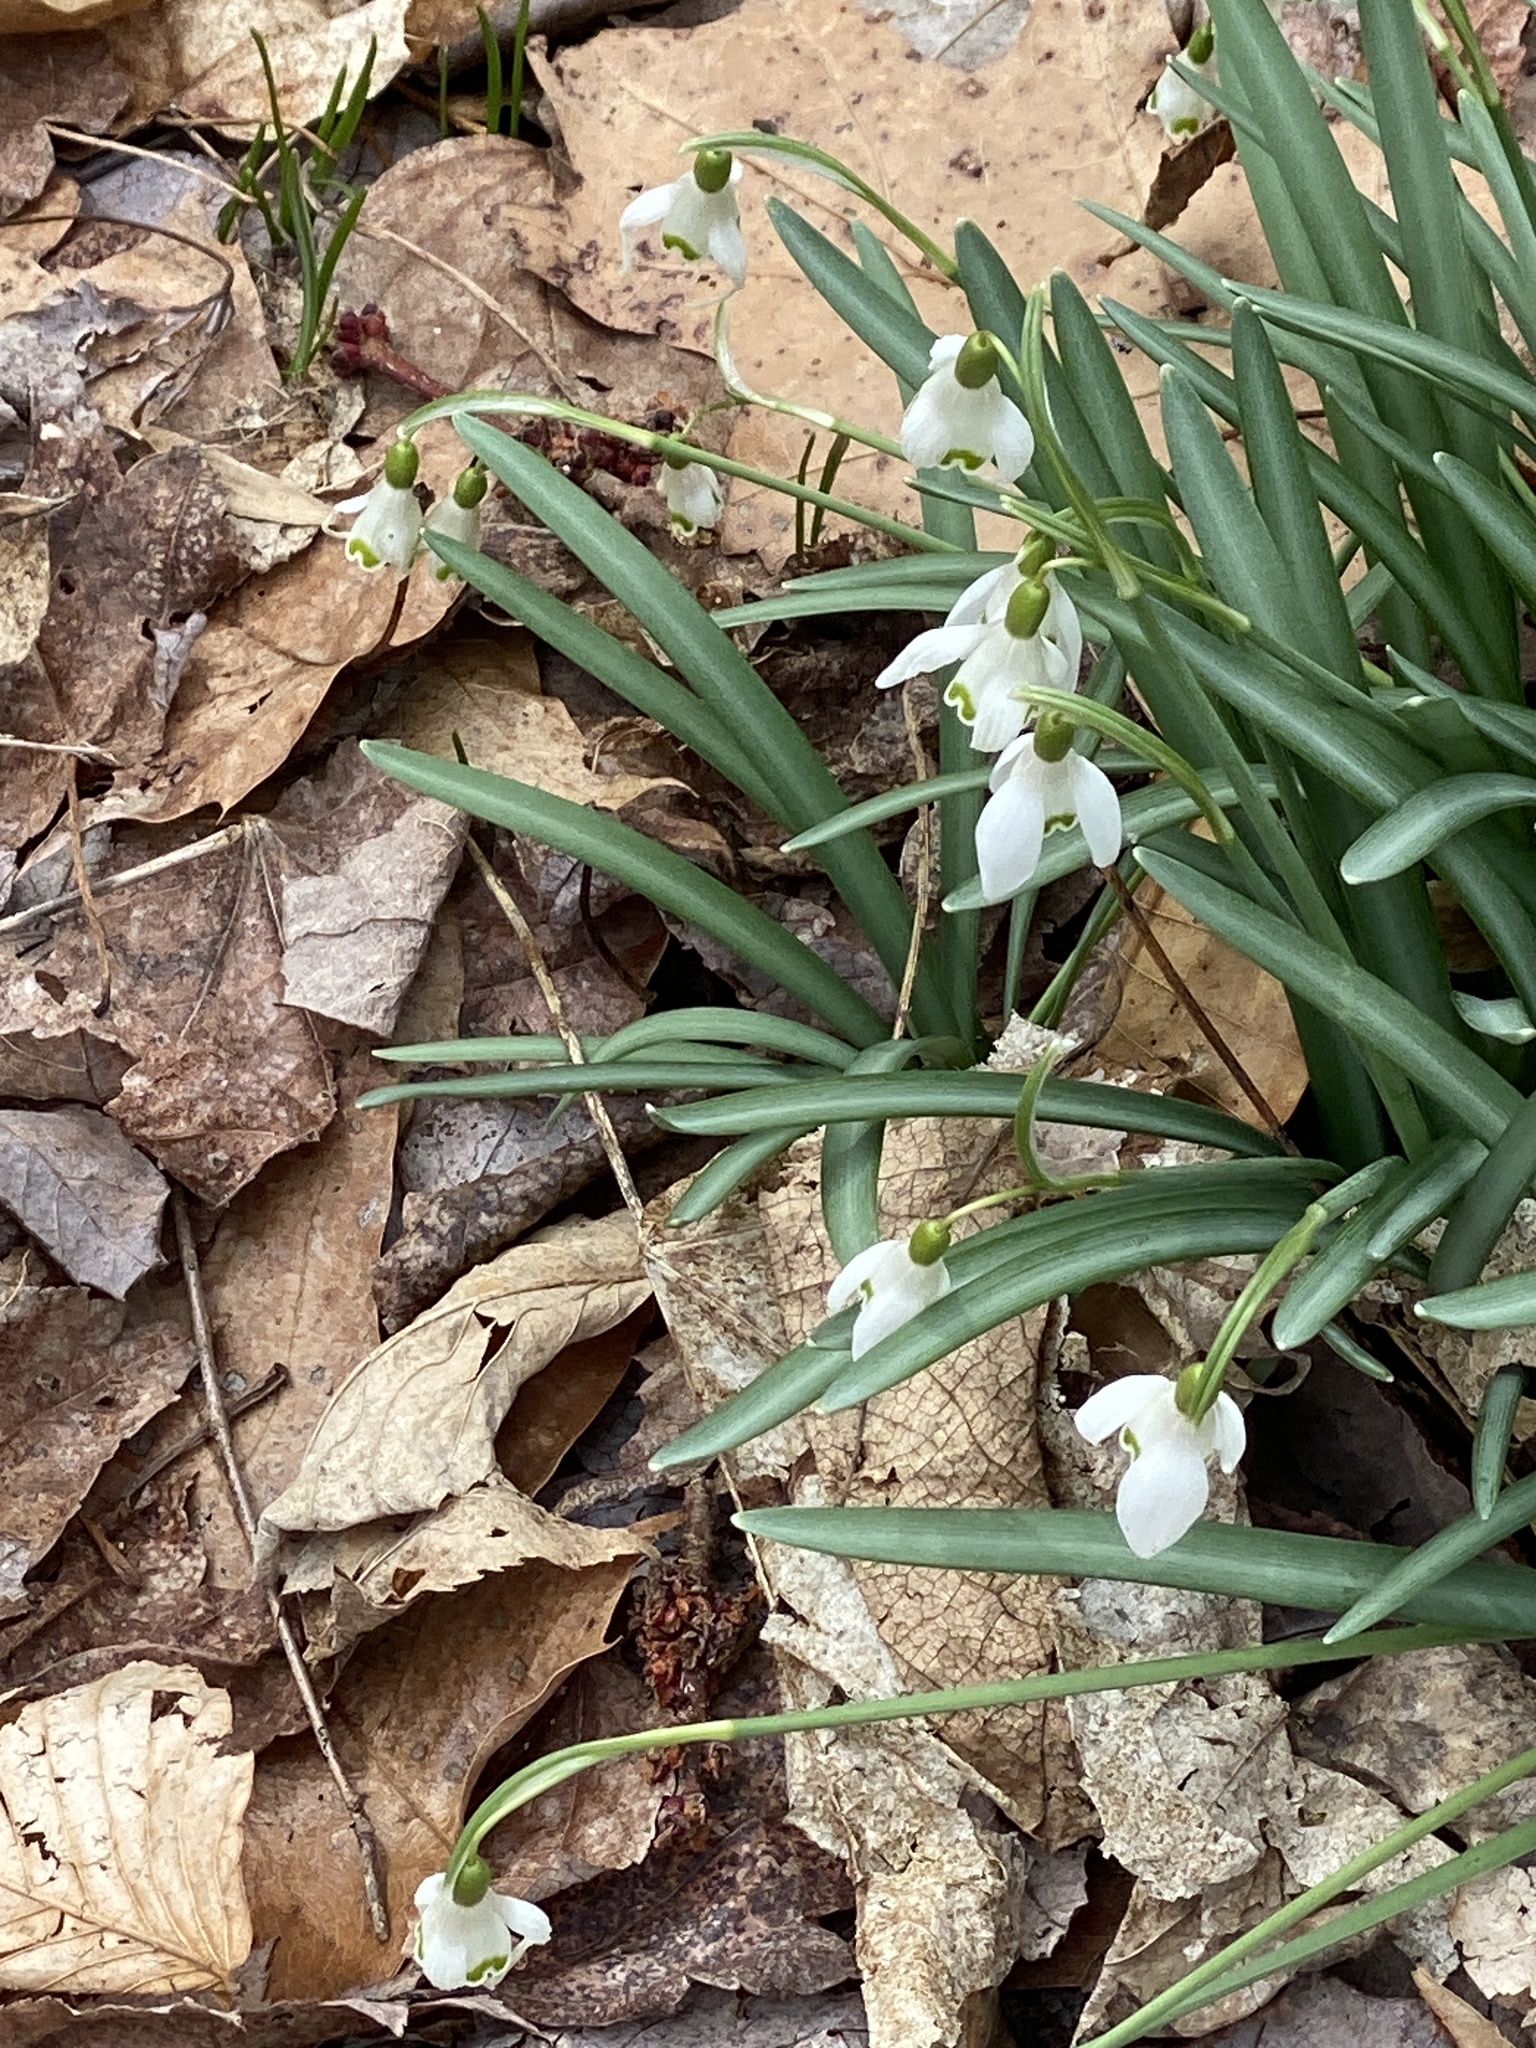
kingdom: Plantae
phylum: Tracheophyta
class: Liliopsida
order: Asparagales
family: Amaryllidaceae
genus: Galanthus
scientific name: Galanthus nivalis
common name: Snowdrop
